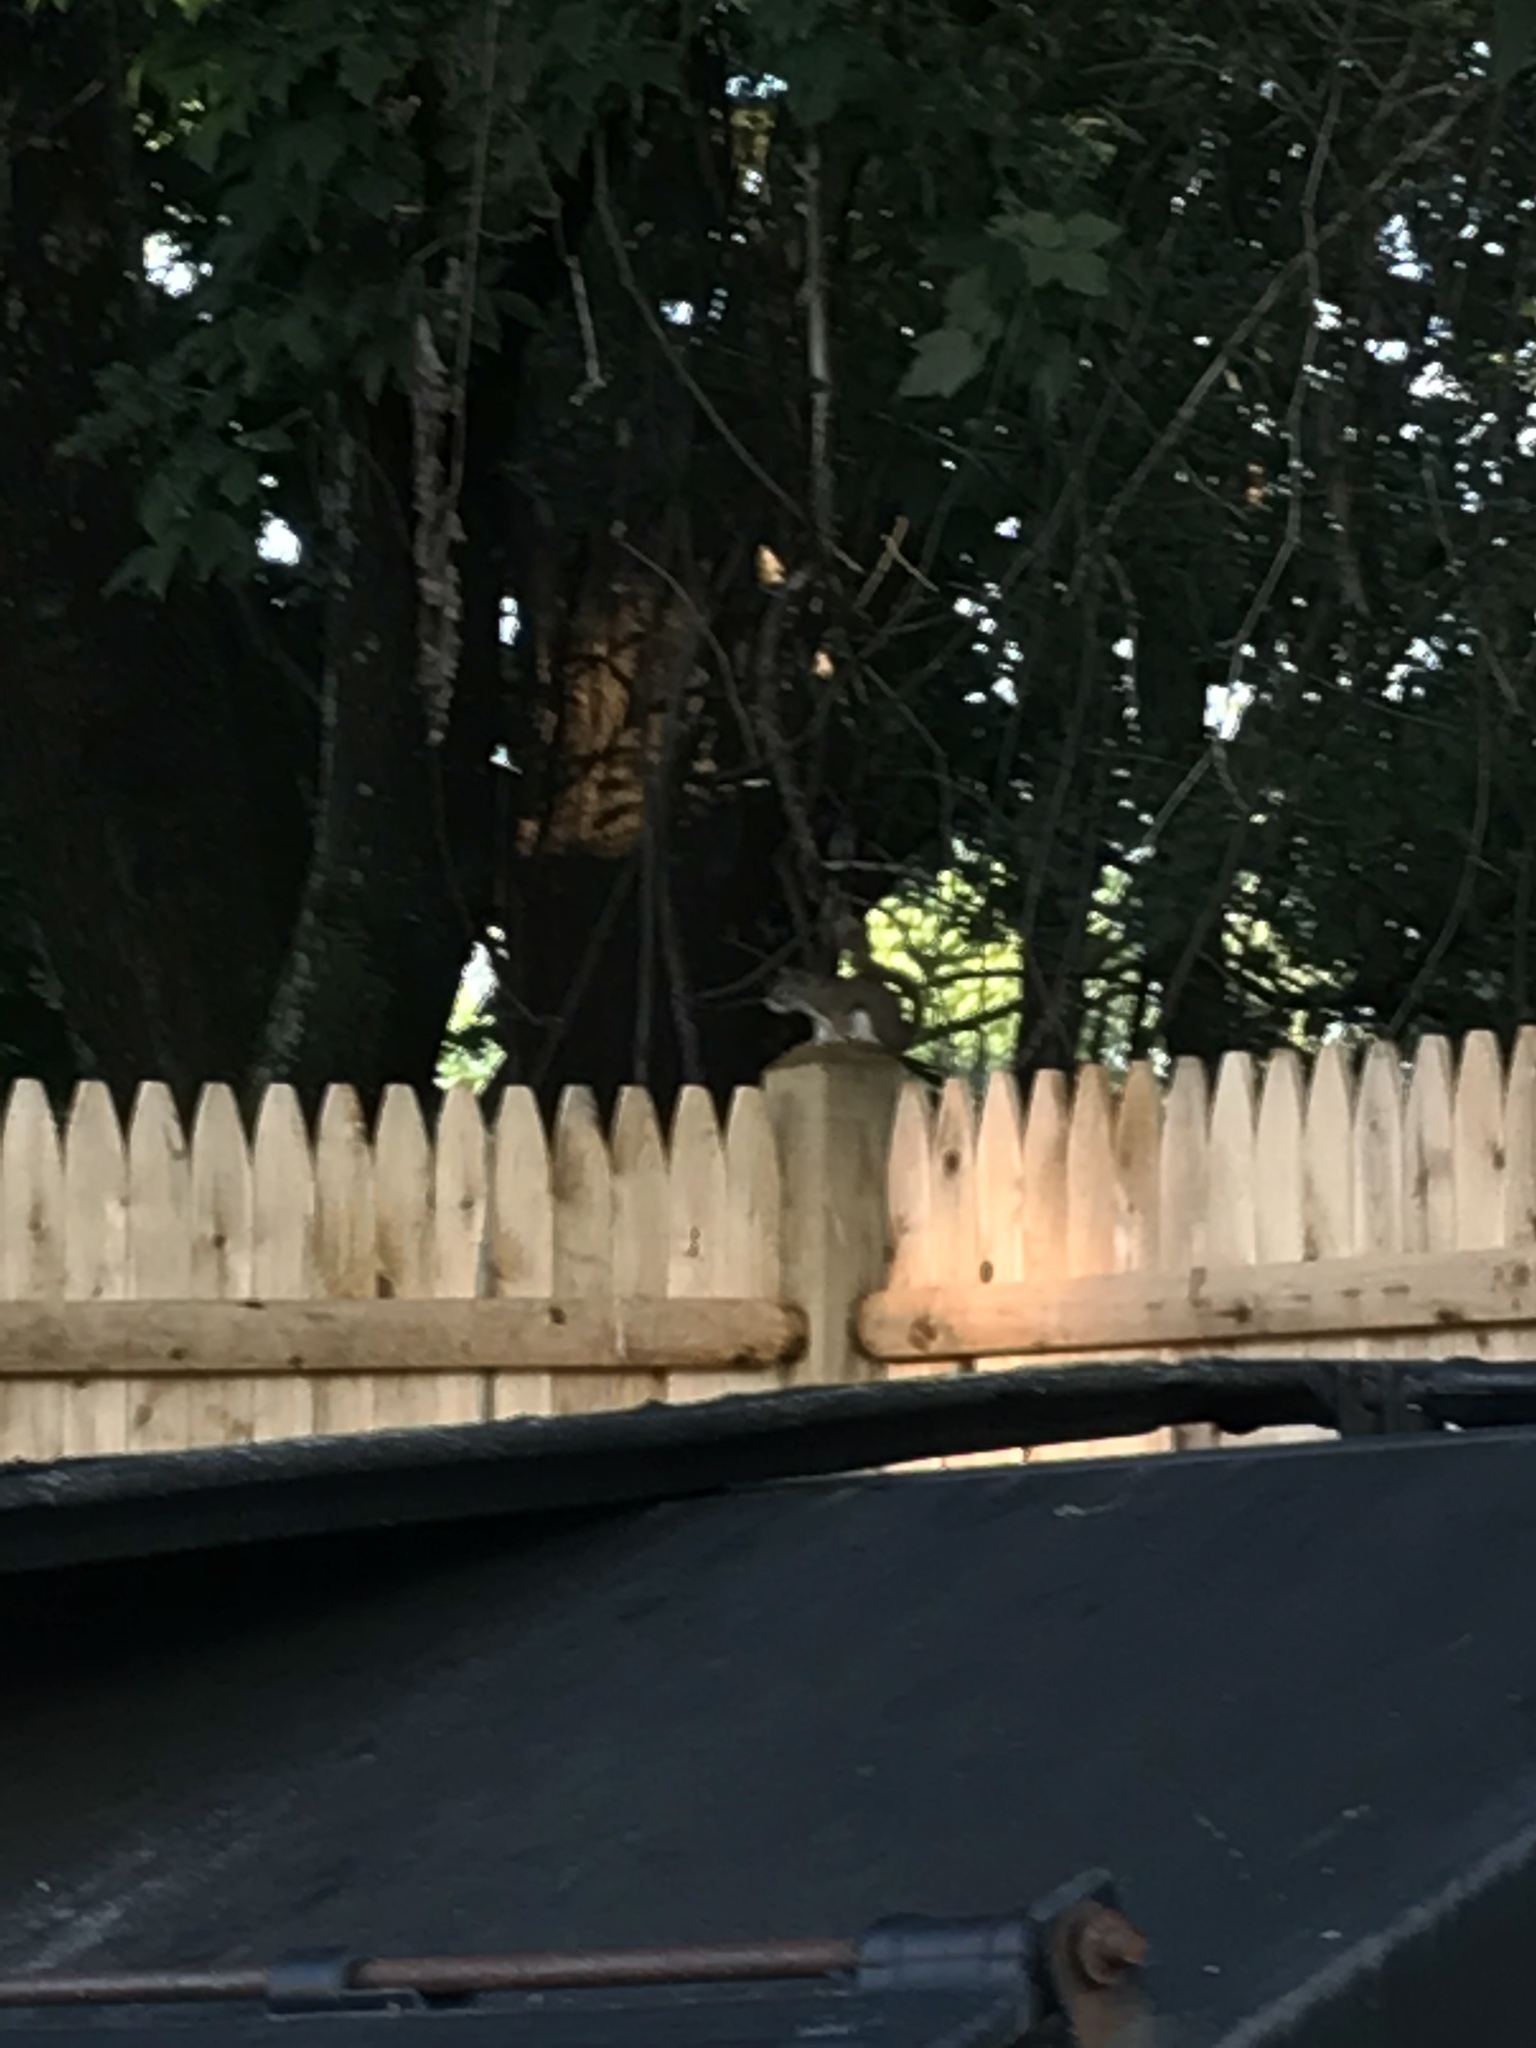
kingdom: Animalia
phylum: Chordata
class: Mammalia
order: Rodentia
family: Sciuridae
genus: Tamiasciurus
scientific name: Tamiasciurus hudsonicus
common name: Red squirrel
